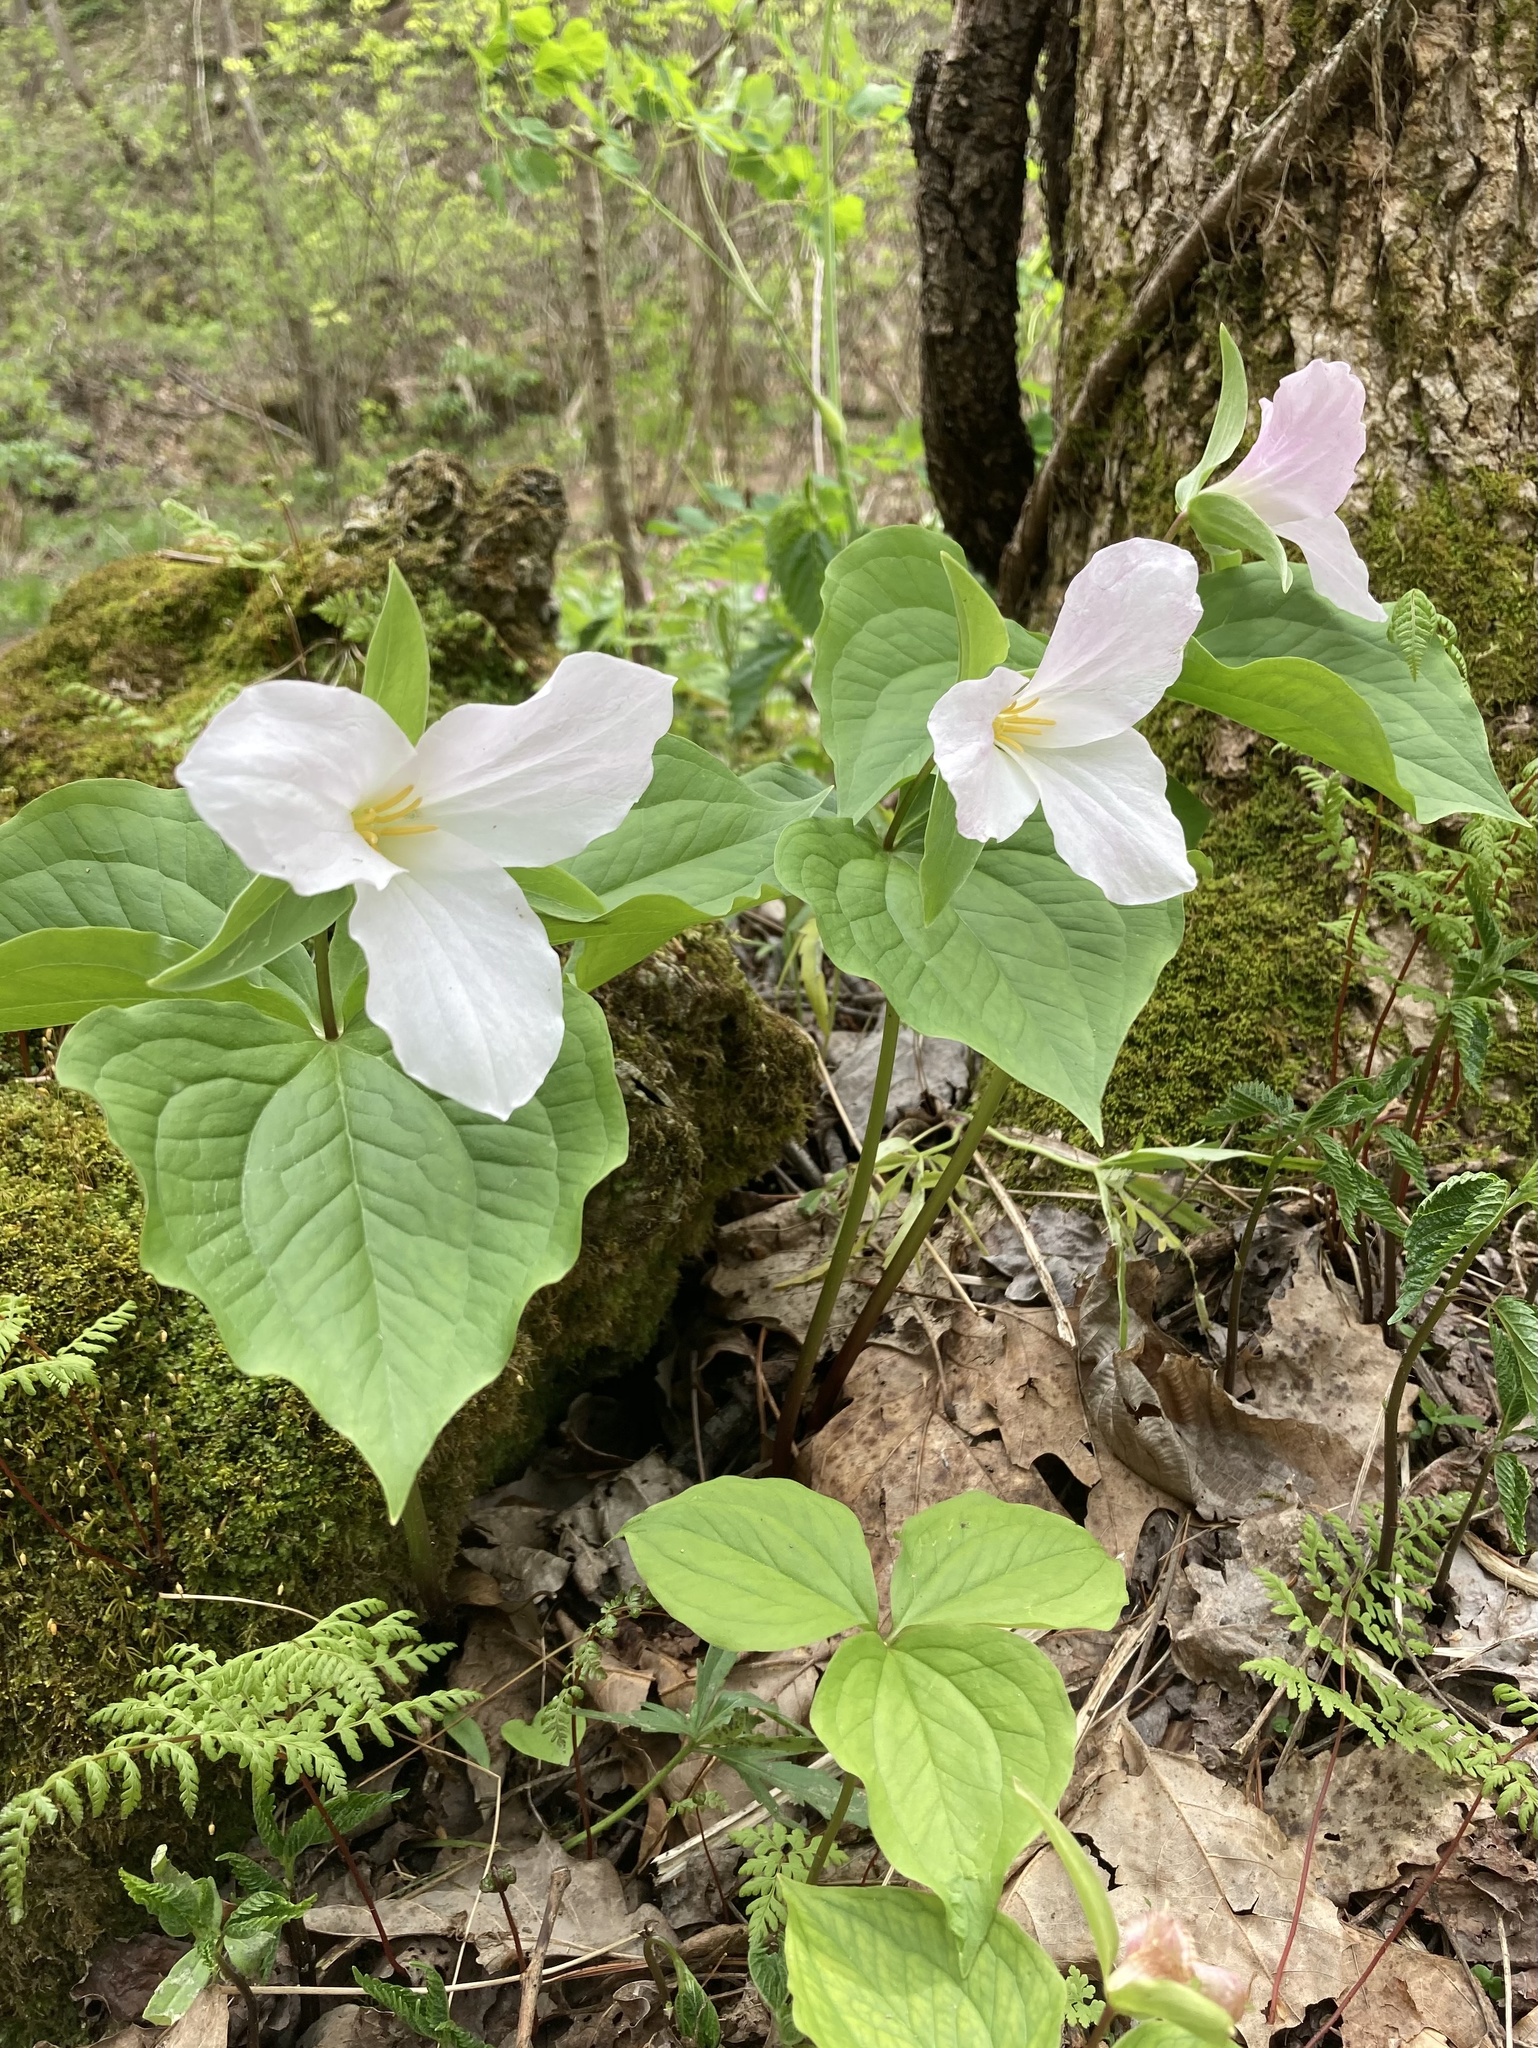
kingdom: Plantae
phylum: Tracheophyta
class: Liliopsida
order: Liliales
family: Melanthiaceae
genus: Trillium
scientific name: Trillium grandiflorum
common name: Great white trillium
